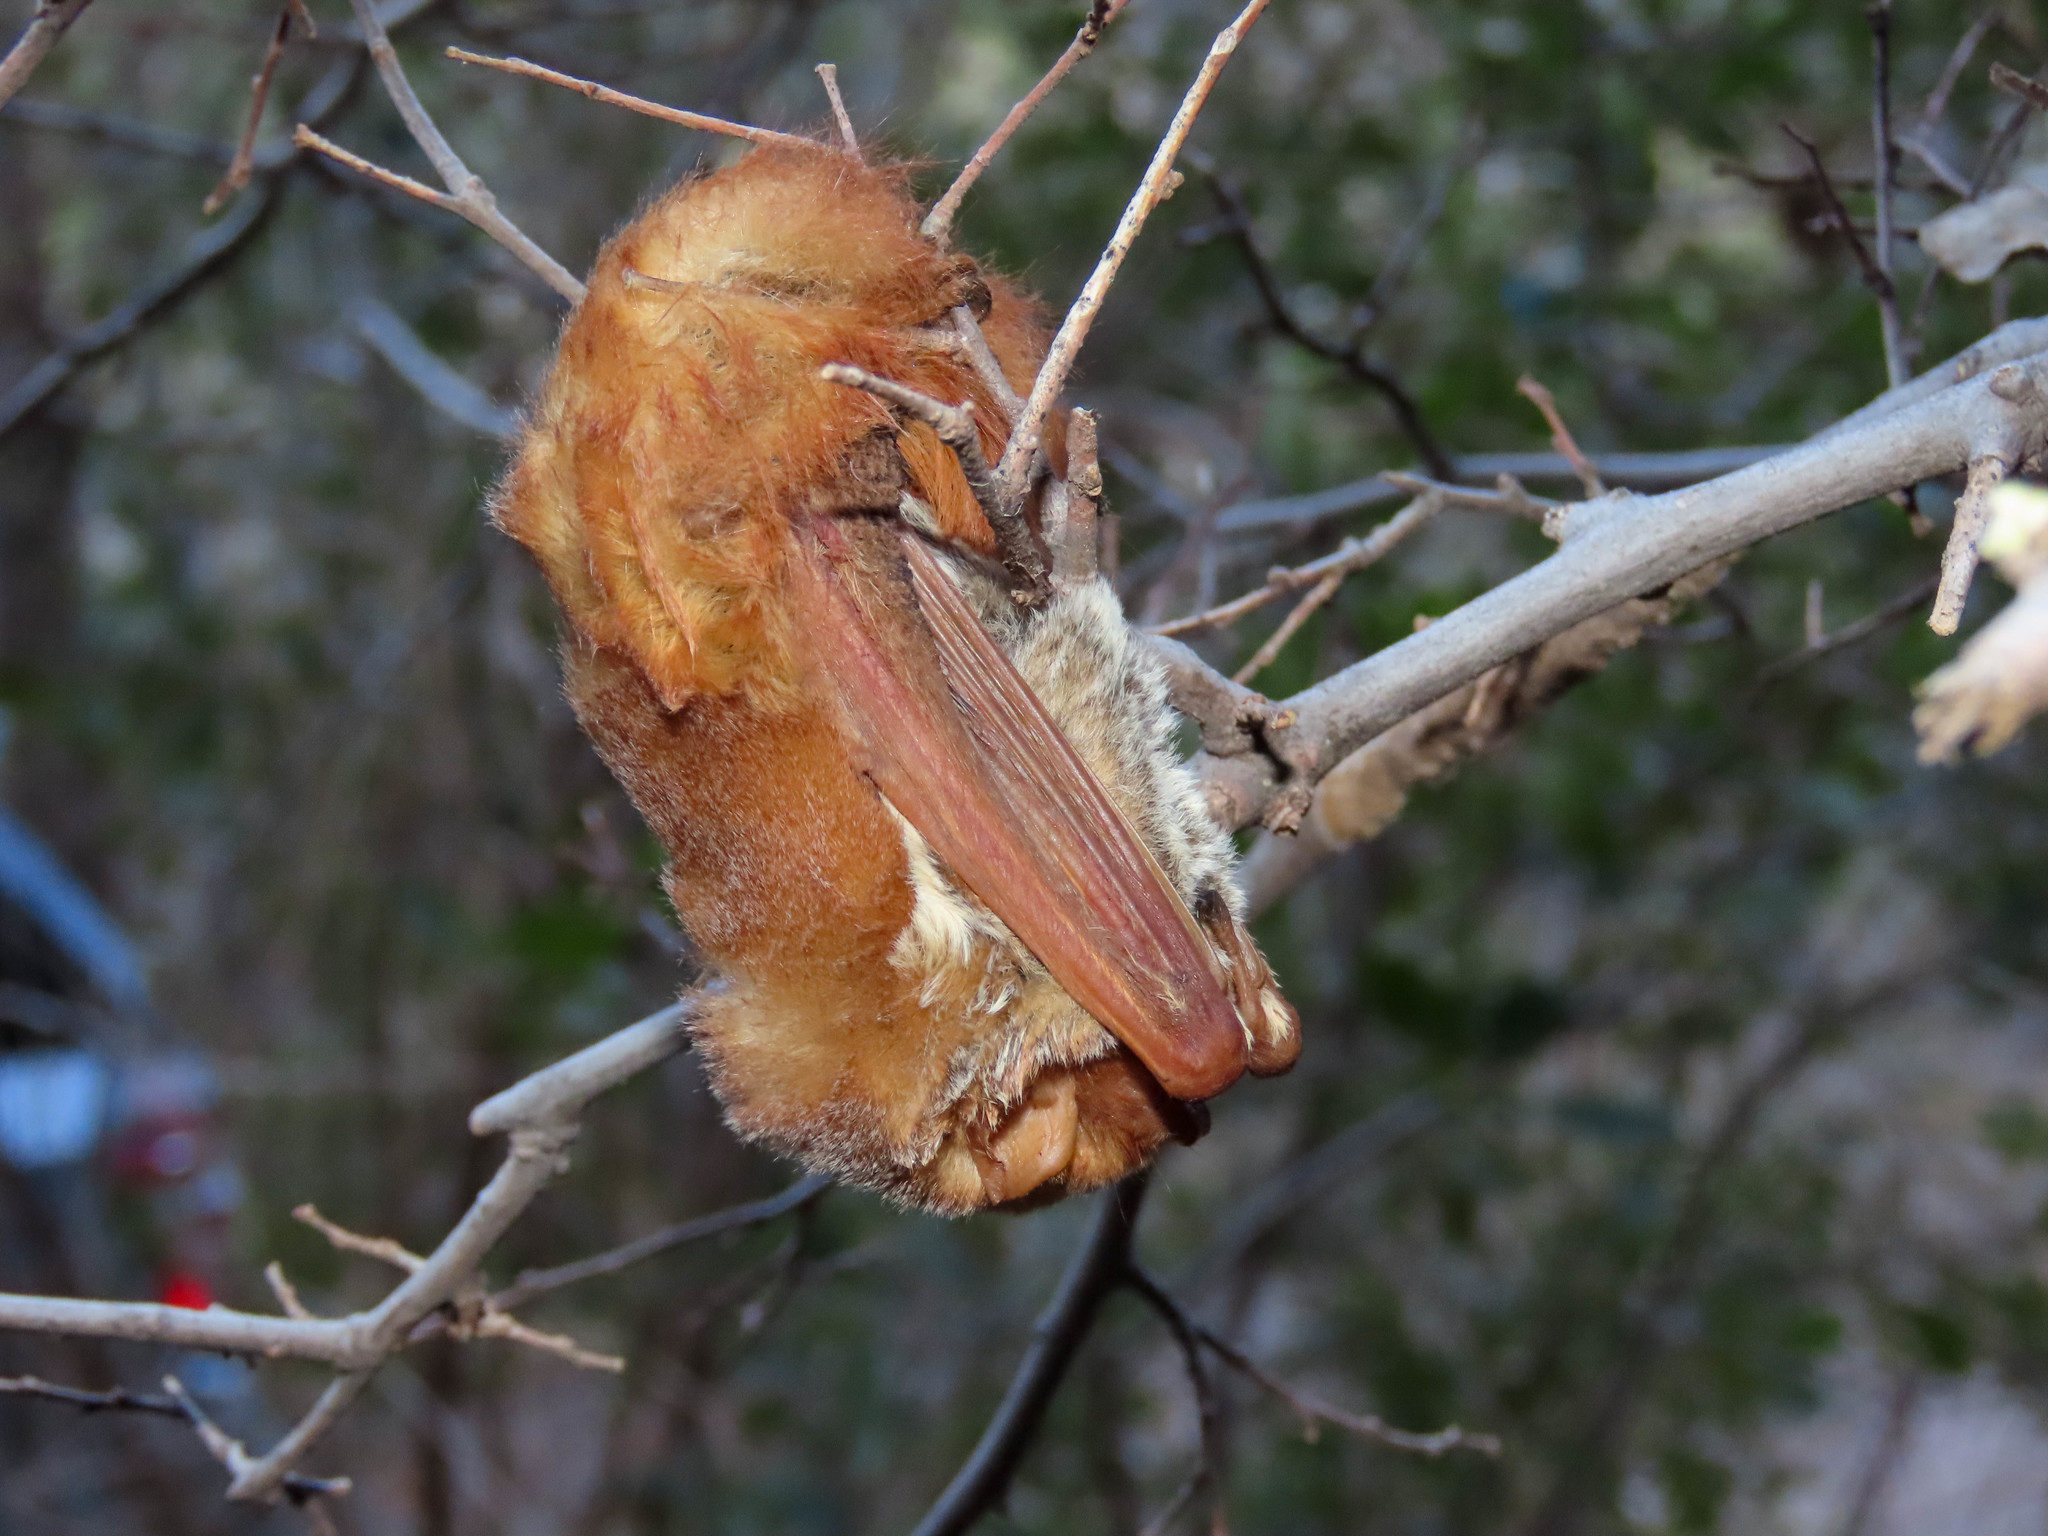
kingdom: Animalia
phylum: Chordata
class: Mammalia
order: Chiroptera
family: Vespertilionidae
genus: Lasiurus
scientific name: Lasiurus frantzii
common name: Desert red bat
